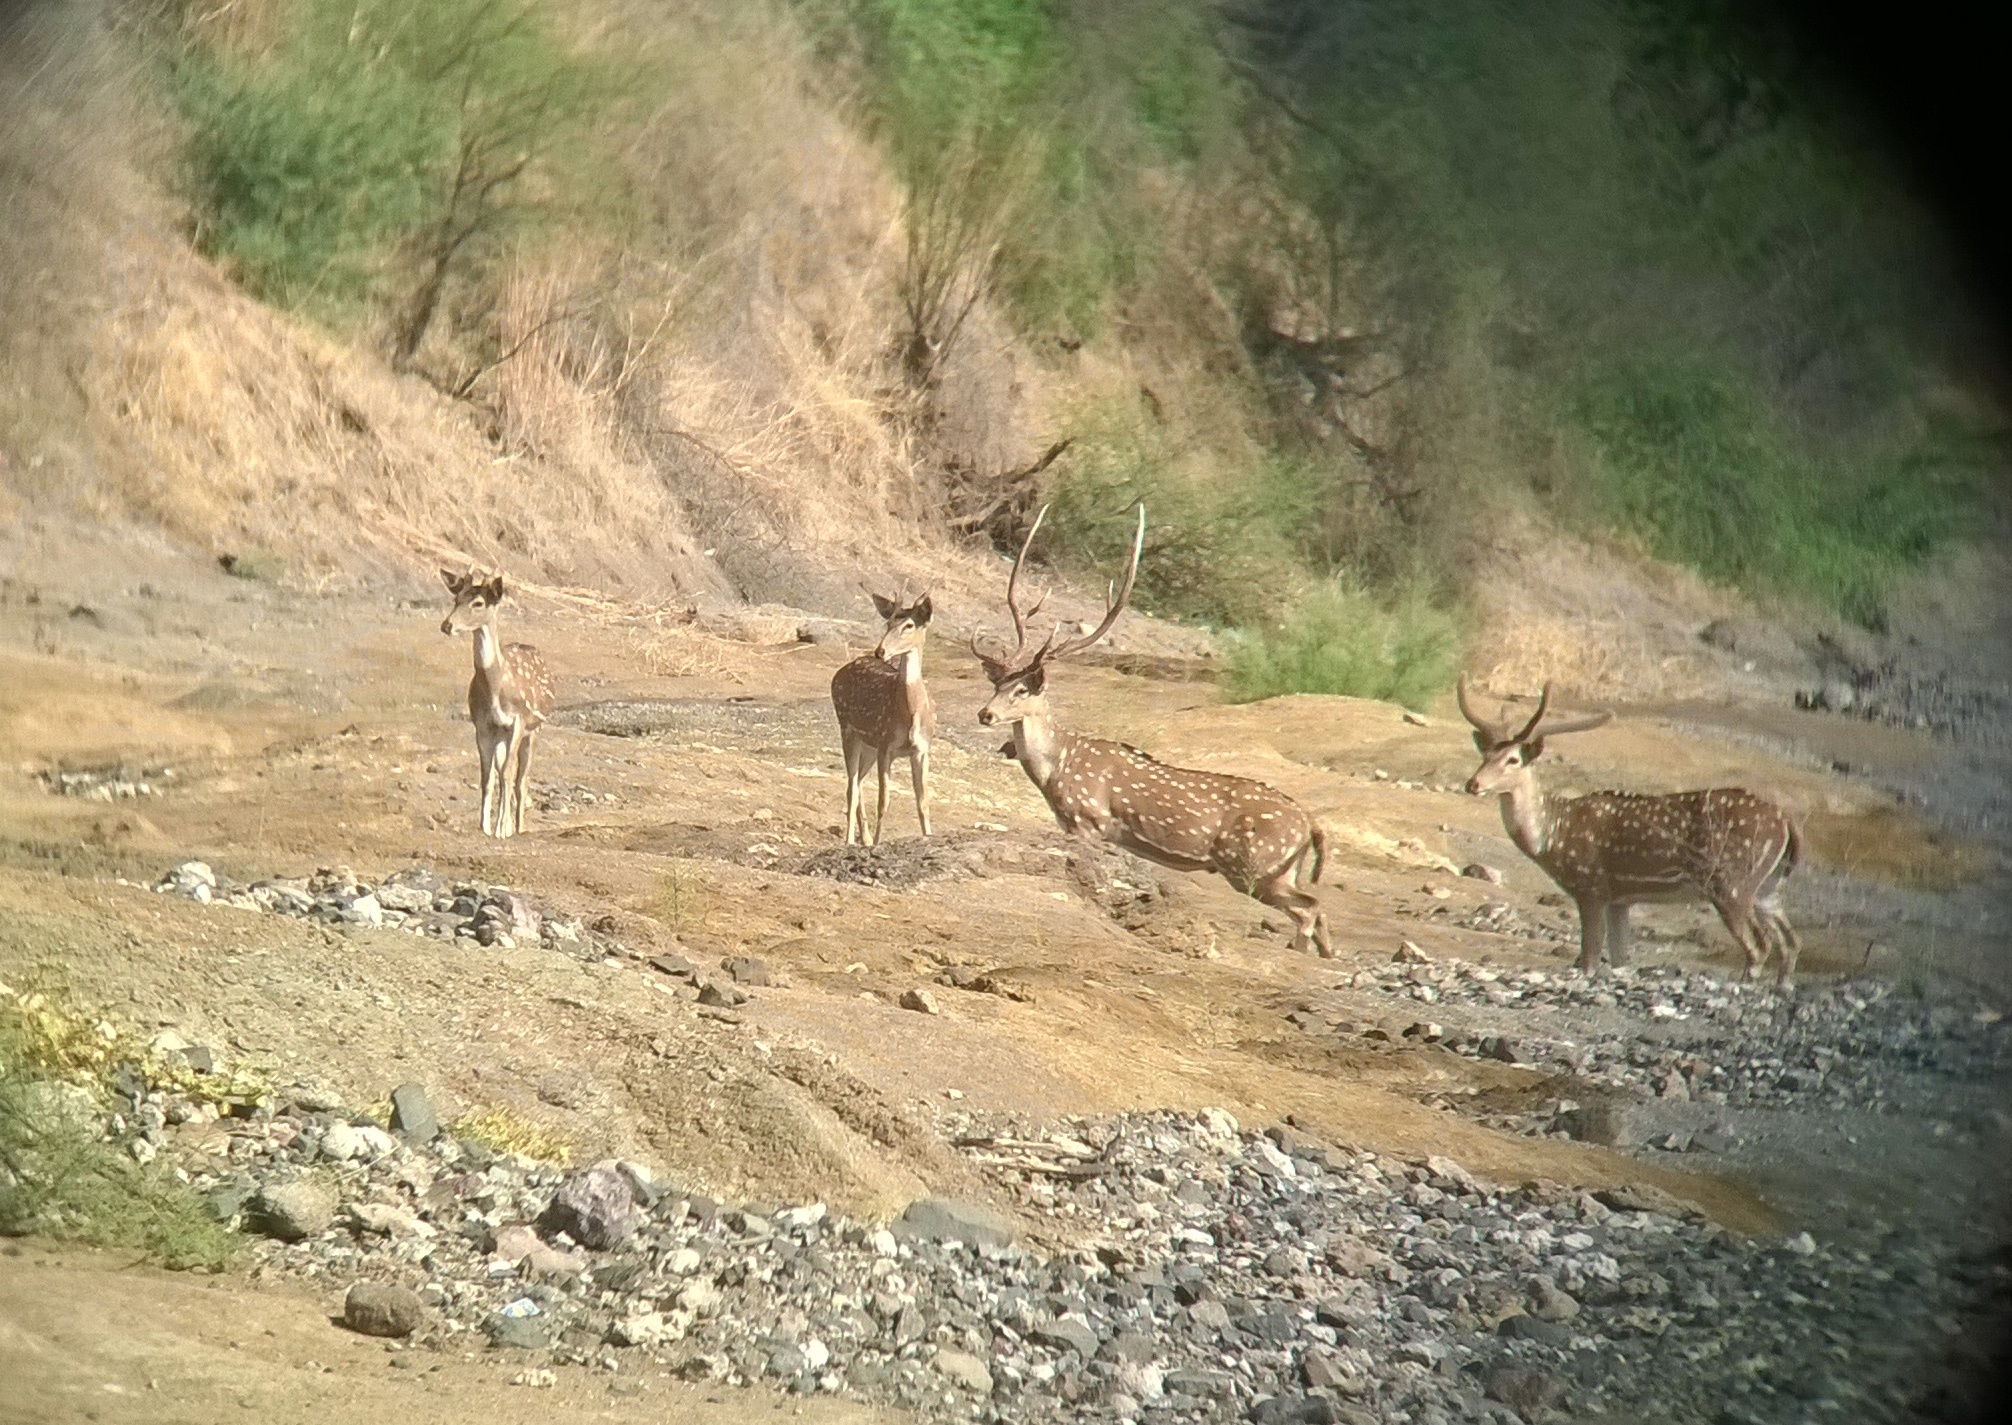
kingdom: Animalia
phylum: Chordata
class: Mammalia
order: Artiodactyla
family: Cervidae
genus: Axis
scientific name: Axis axis
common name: Chital
